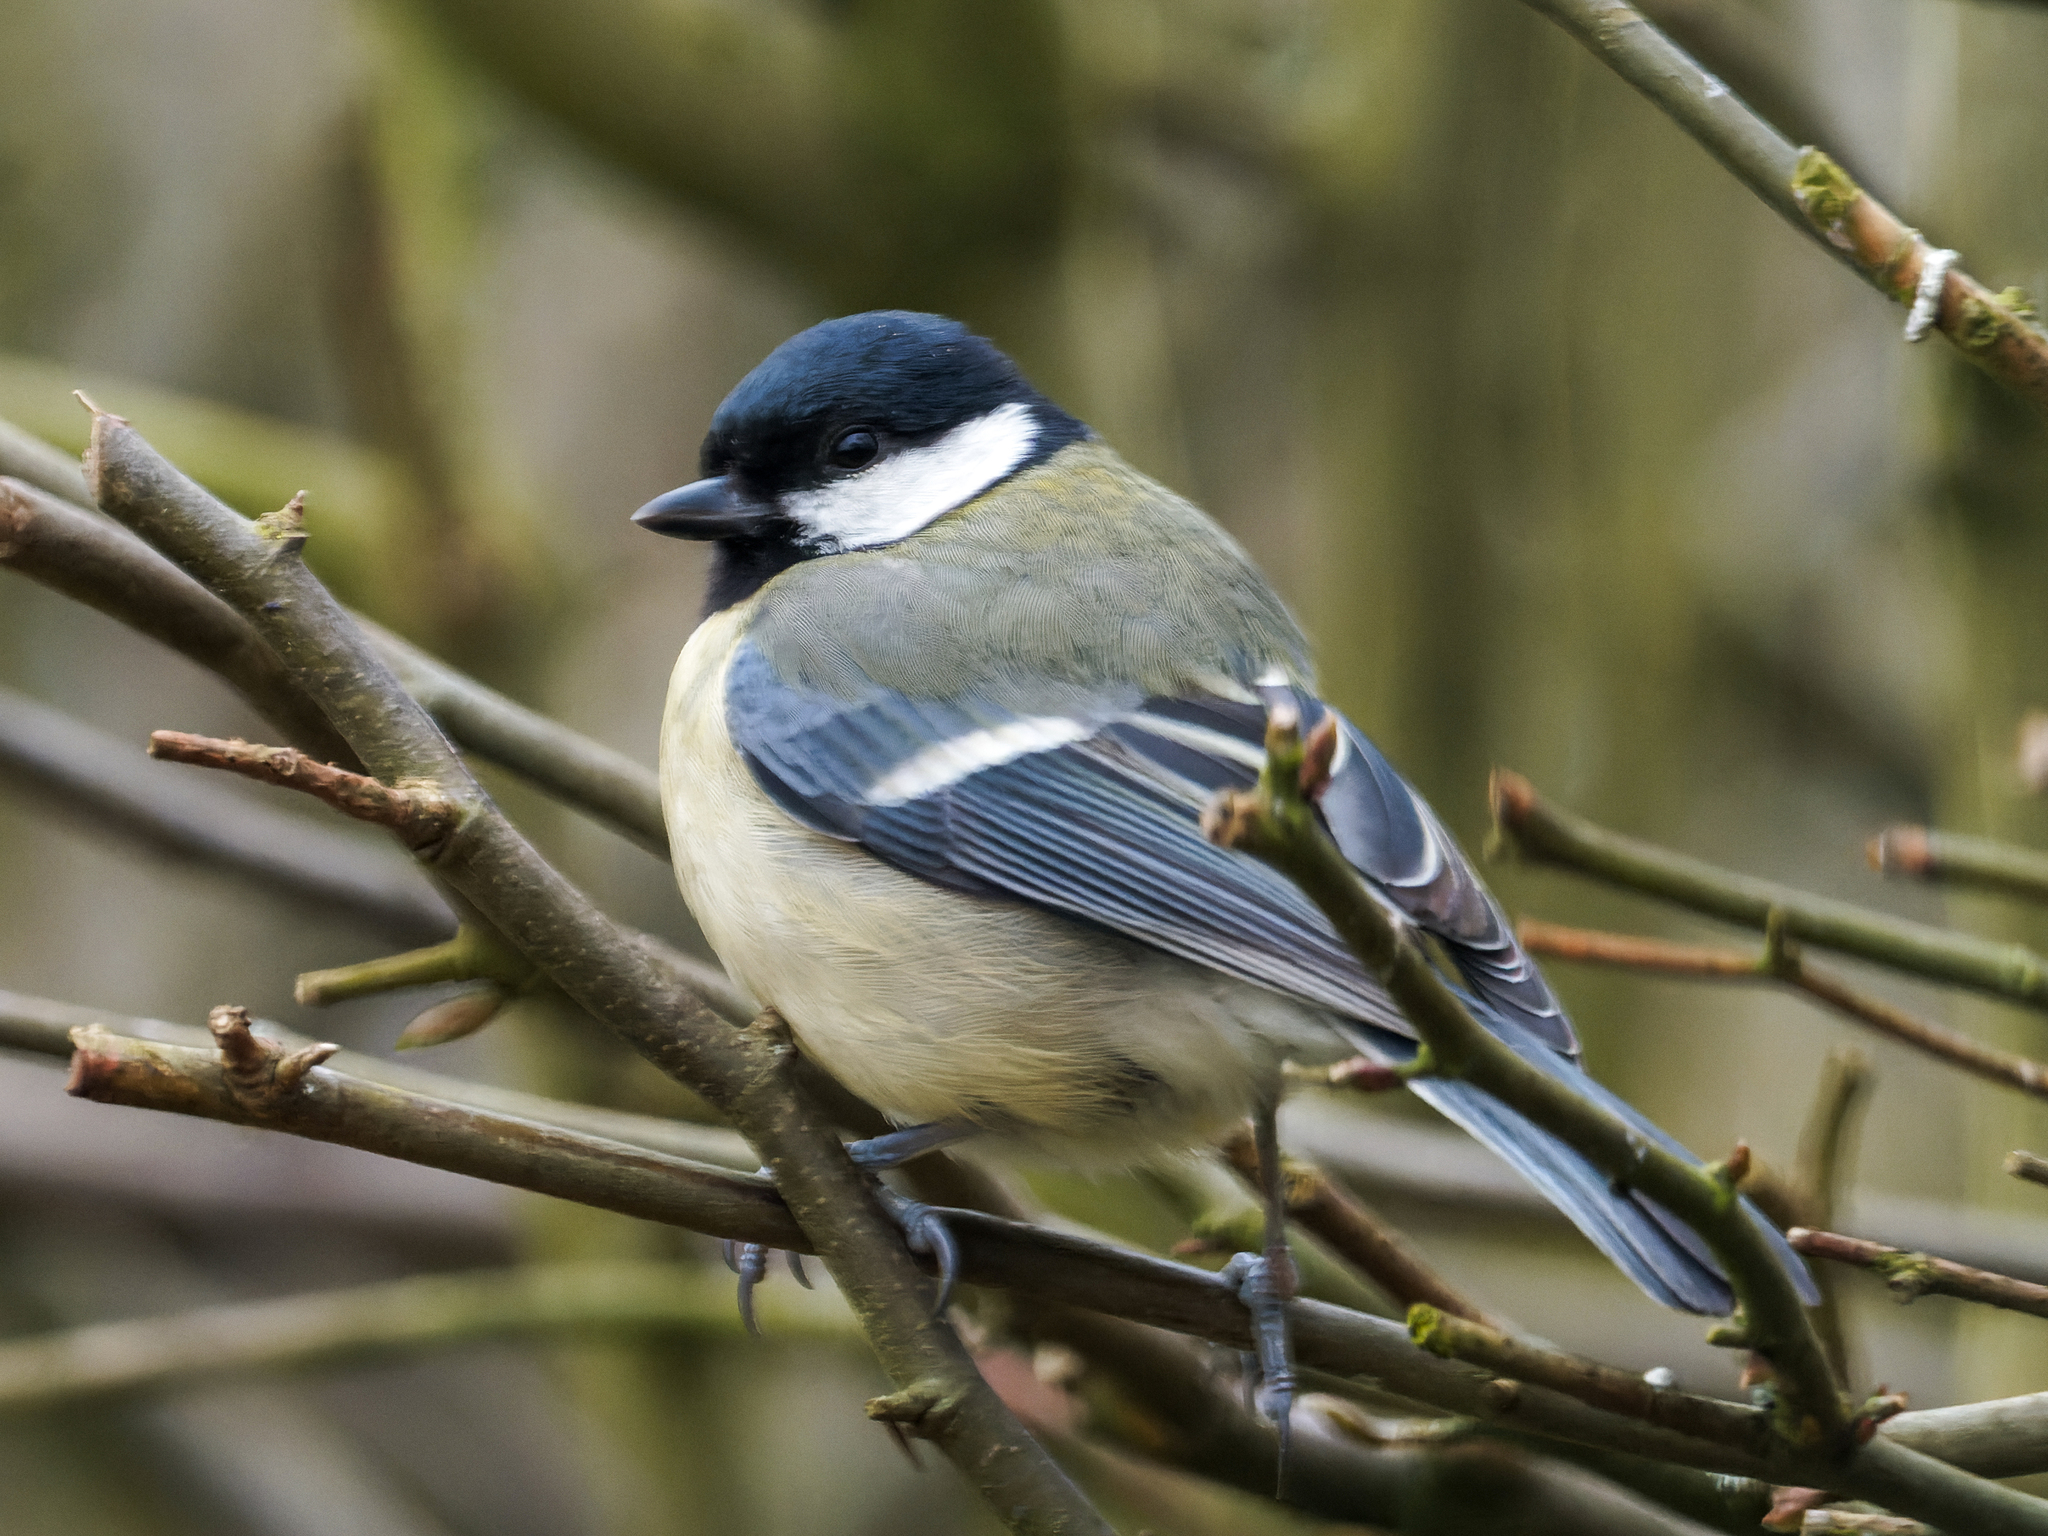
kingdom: Animalia
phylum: Chordata
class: Aves
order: Passeriformes
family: Paridae
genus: Parus
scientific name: Parus major
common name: Great tit
